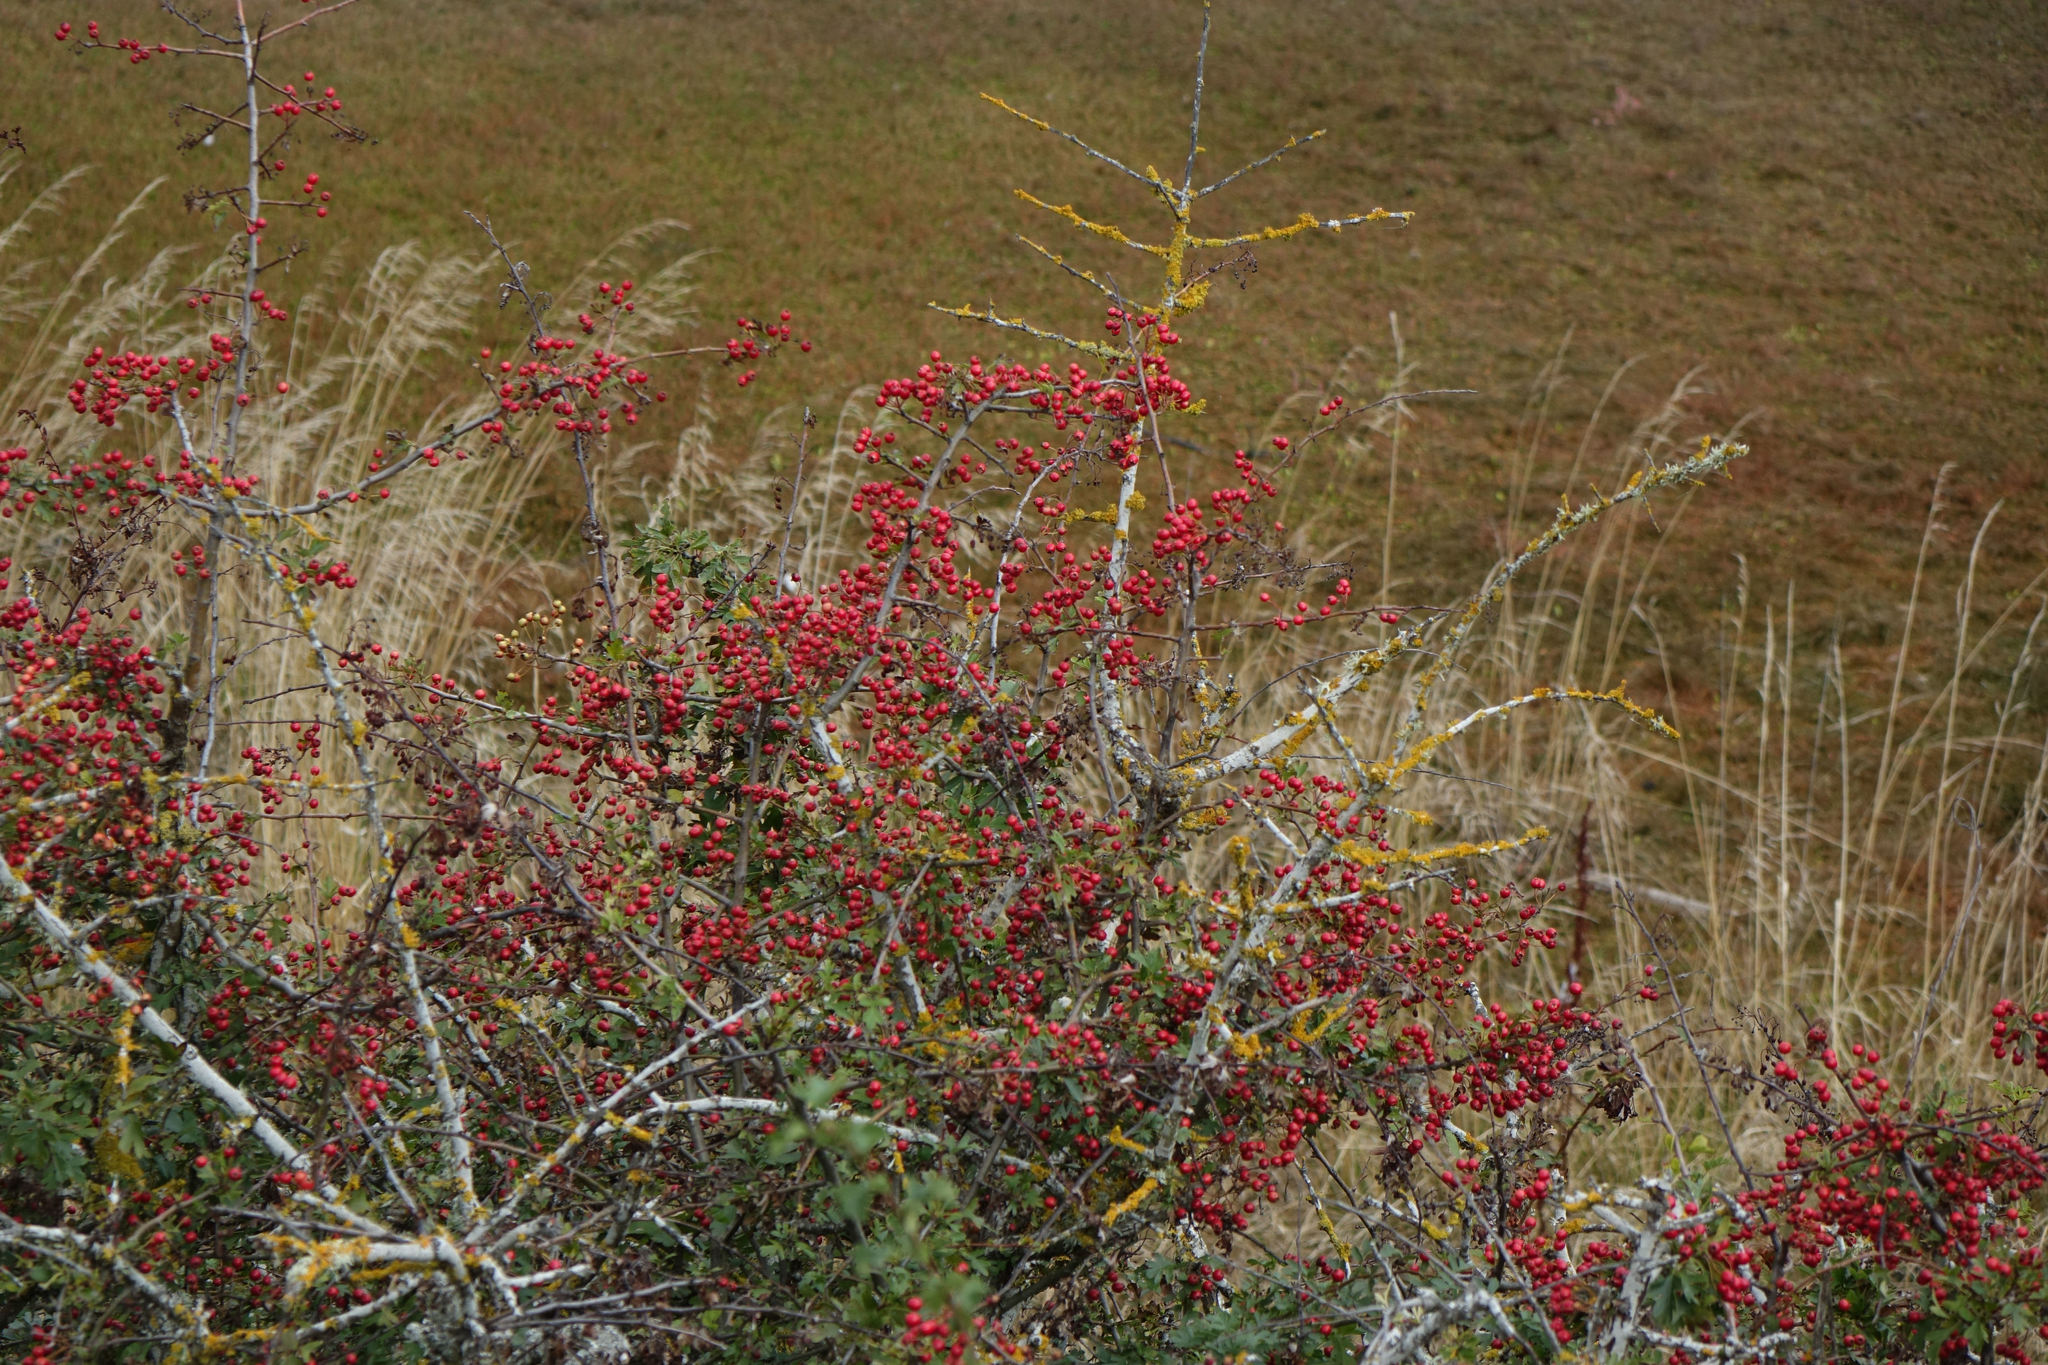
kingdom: Plantae
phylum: Tracheophyta
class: Magnoliopsida
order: Rosales
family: Rosaceae
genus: Crataegus
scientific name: Crataegus monogyna
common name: Hawthorn
